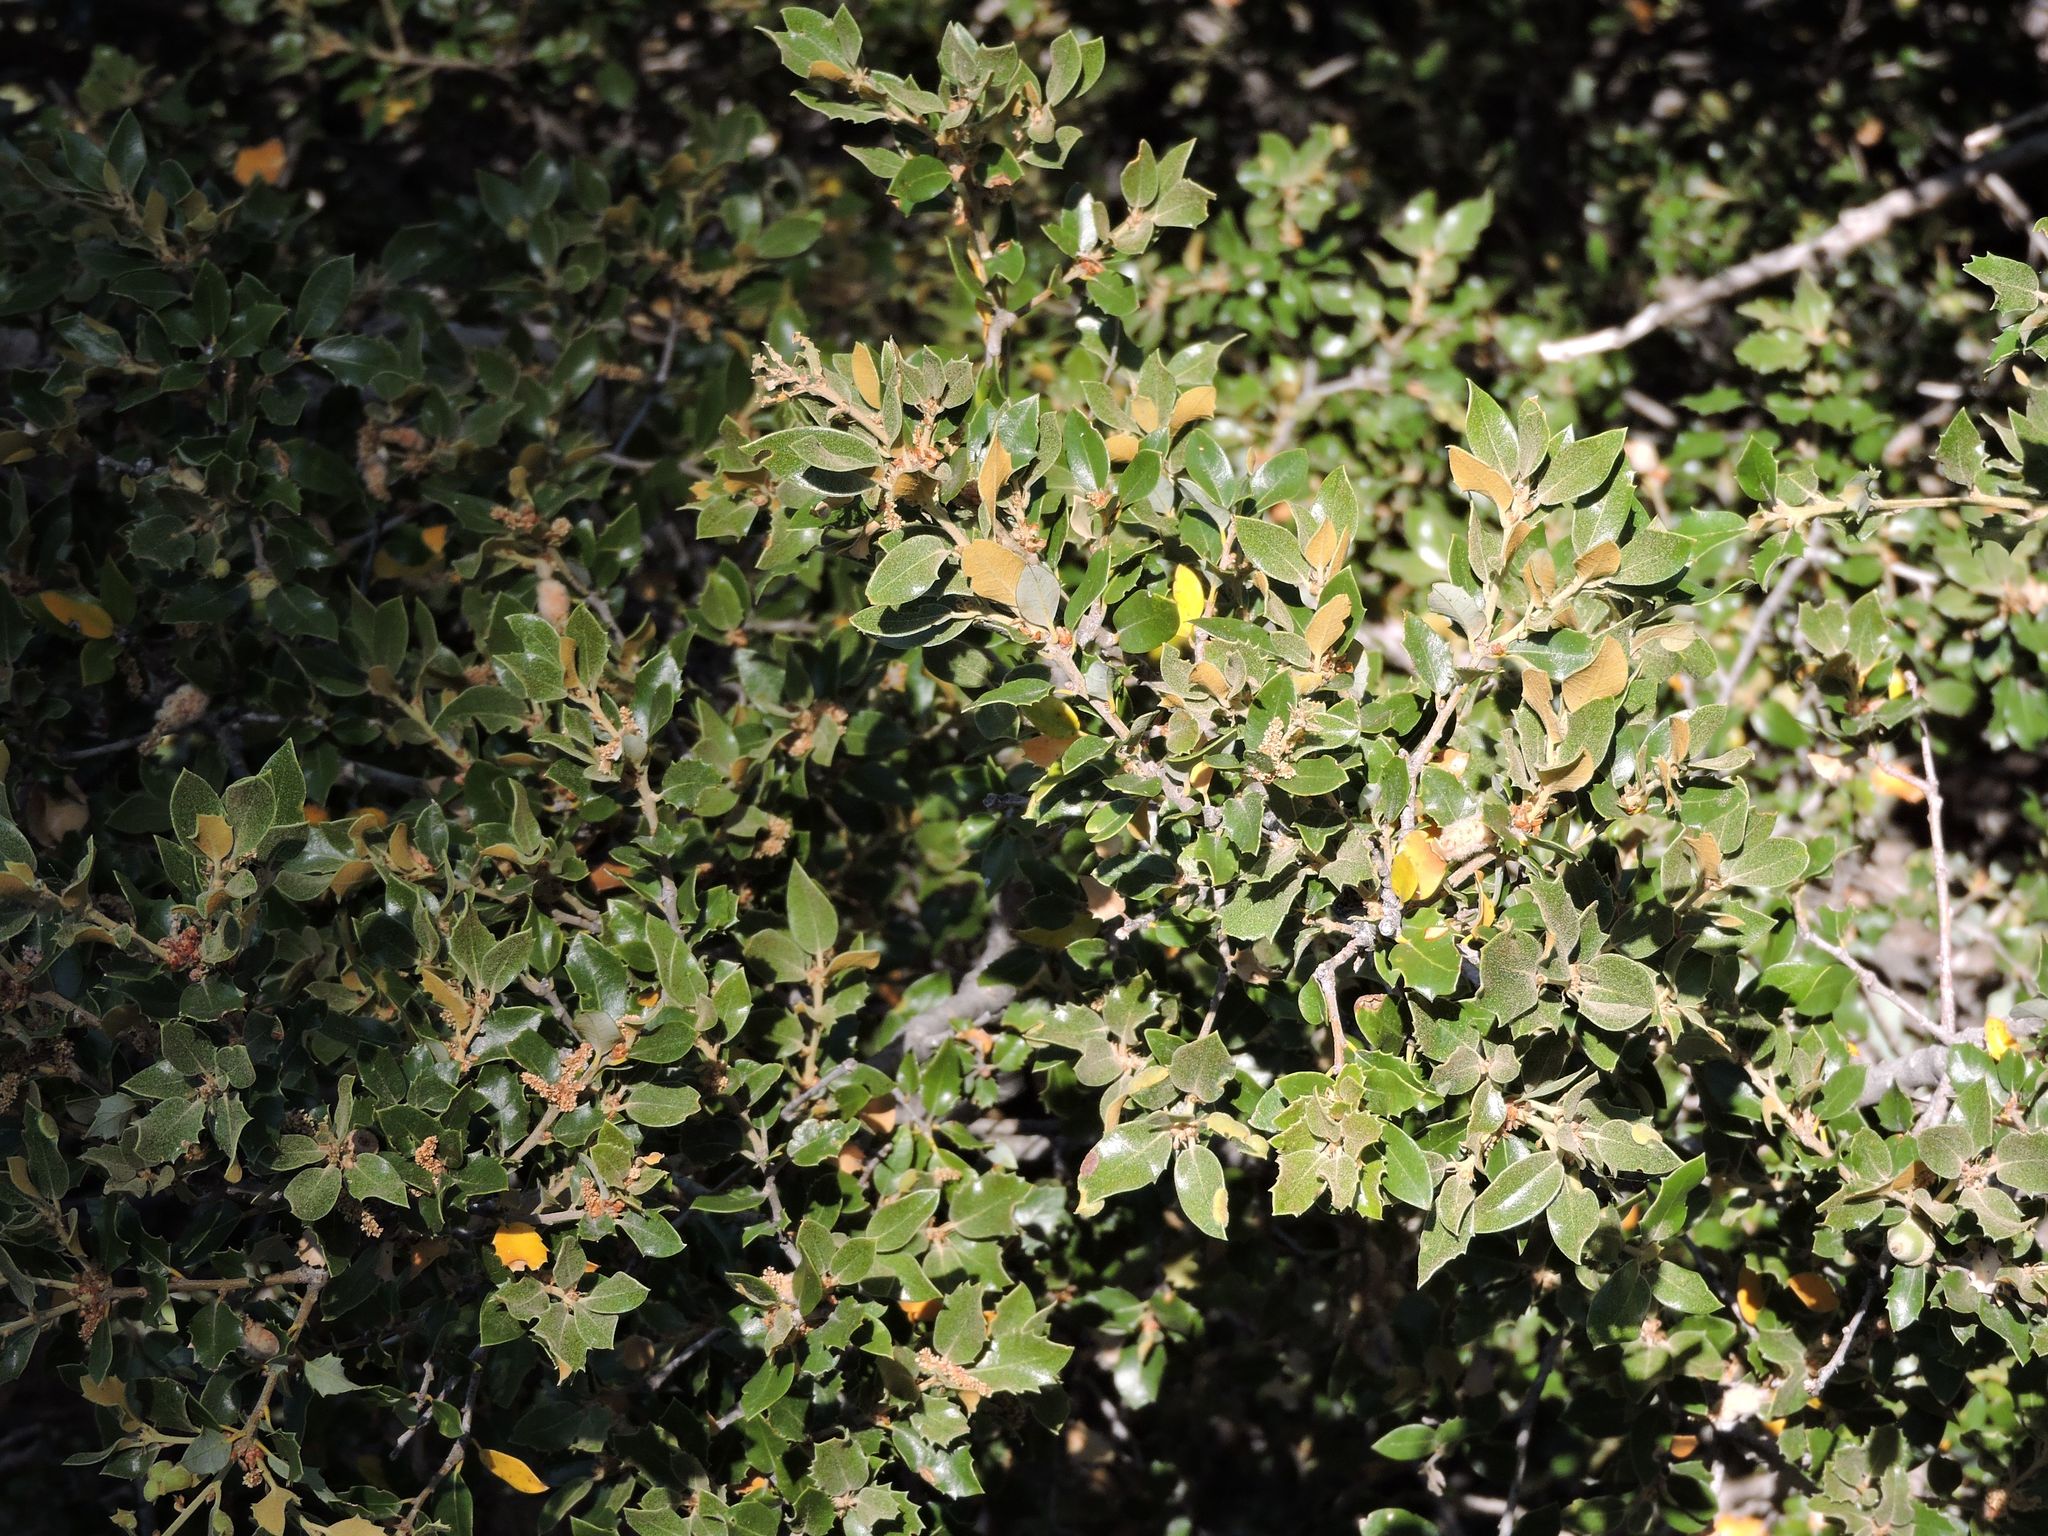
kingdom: Plantae
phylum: Tracheophyta
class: Magnoliopsida
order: Fagales
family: Fagaceae
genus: Quercus
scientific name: Quercus chrysolepis
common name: Canyon live oak
